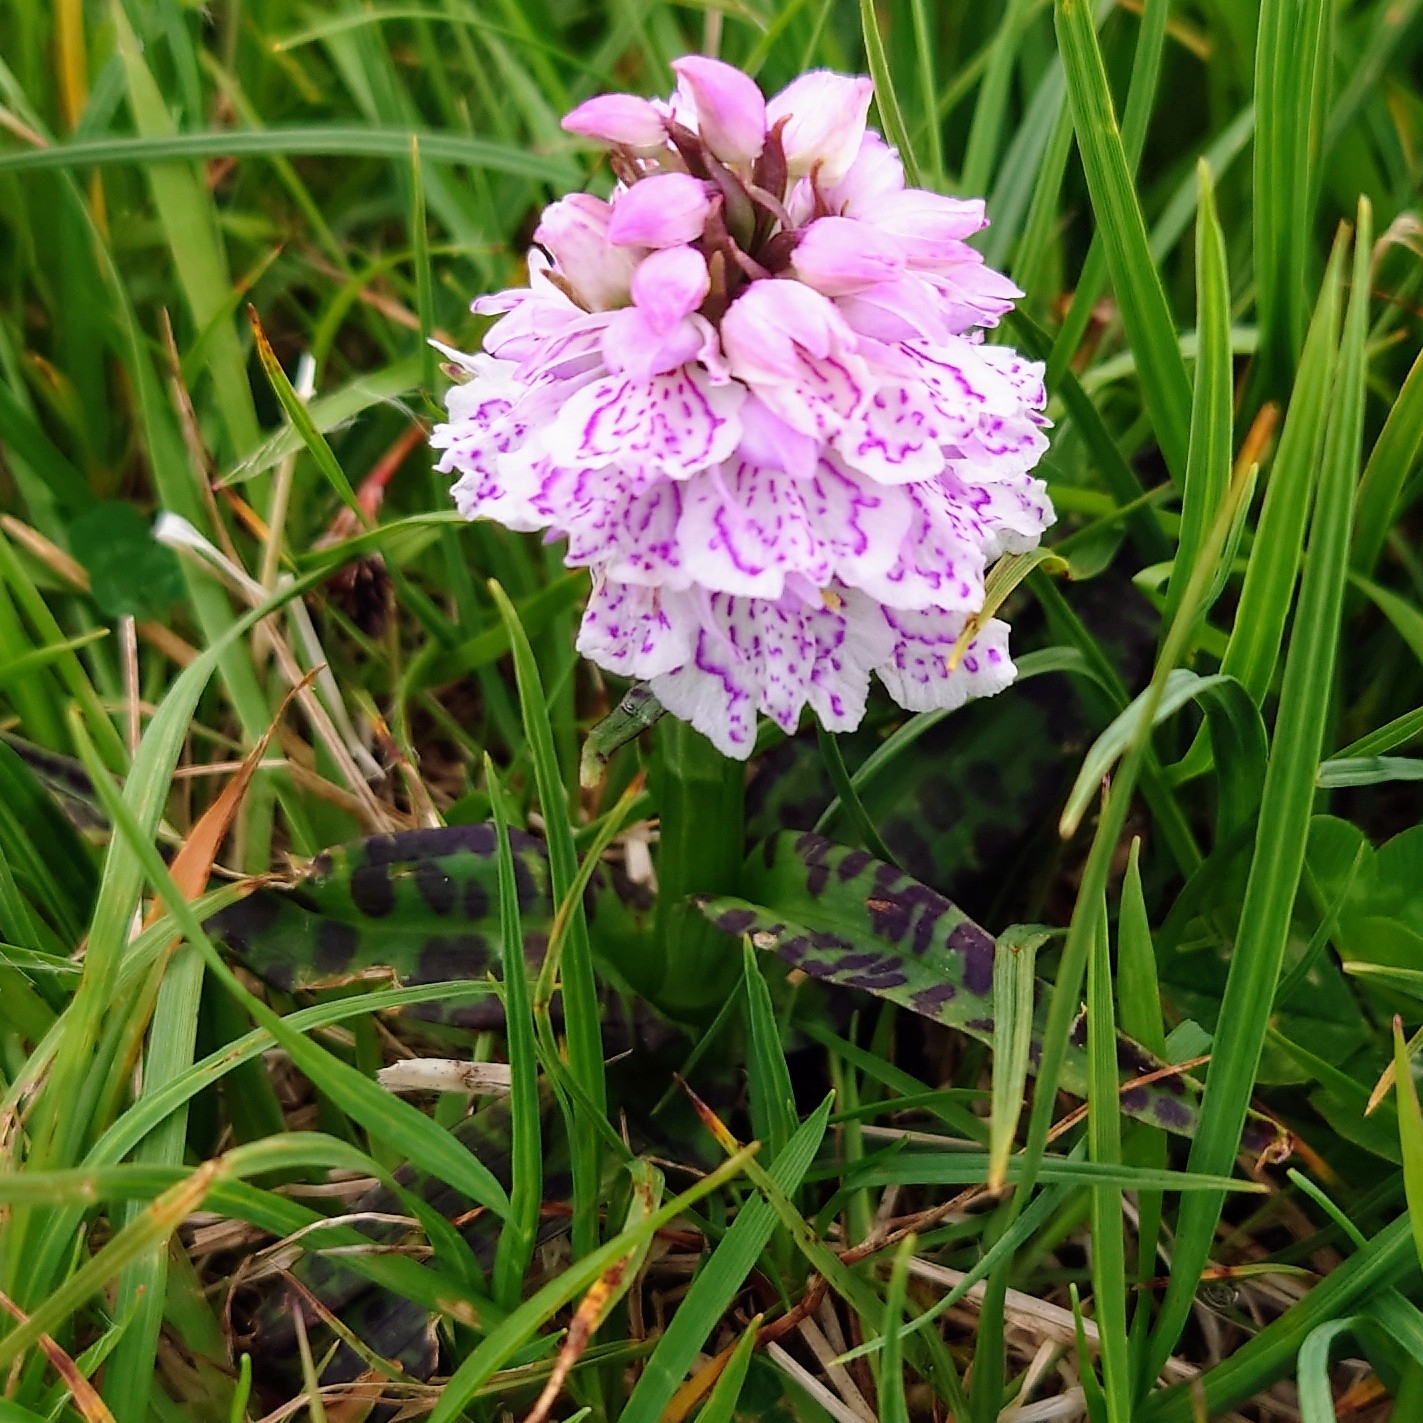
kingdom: Plantae
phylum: Tracheophyta
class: Liliopsida
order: Asparagales
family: Orchidaceae
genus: Dactylorhiza
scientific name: Dactylorhiza maculata
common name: Heath spotted-orchid
